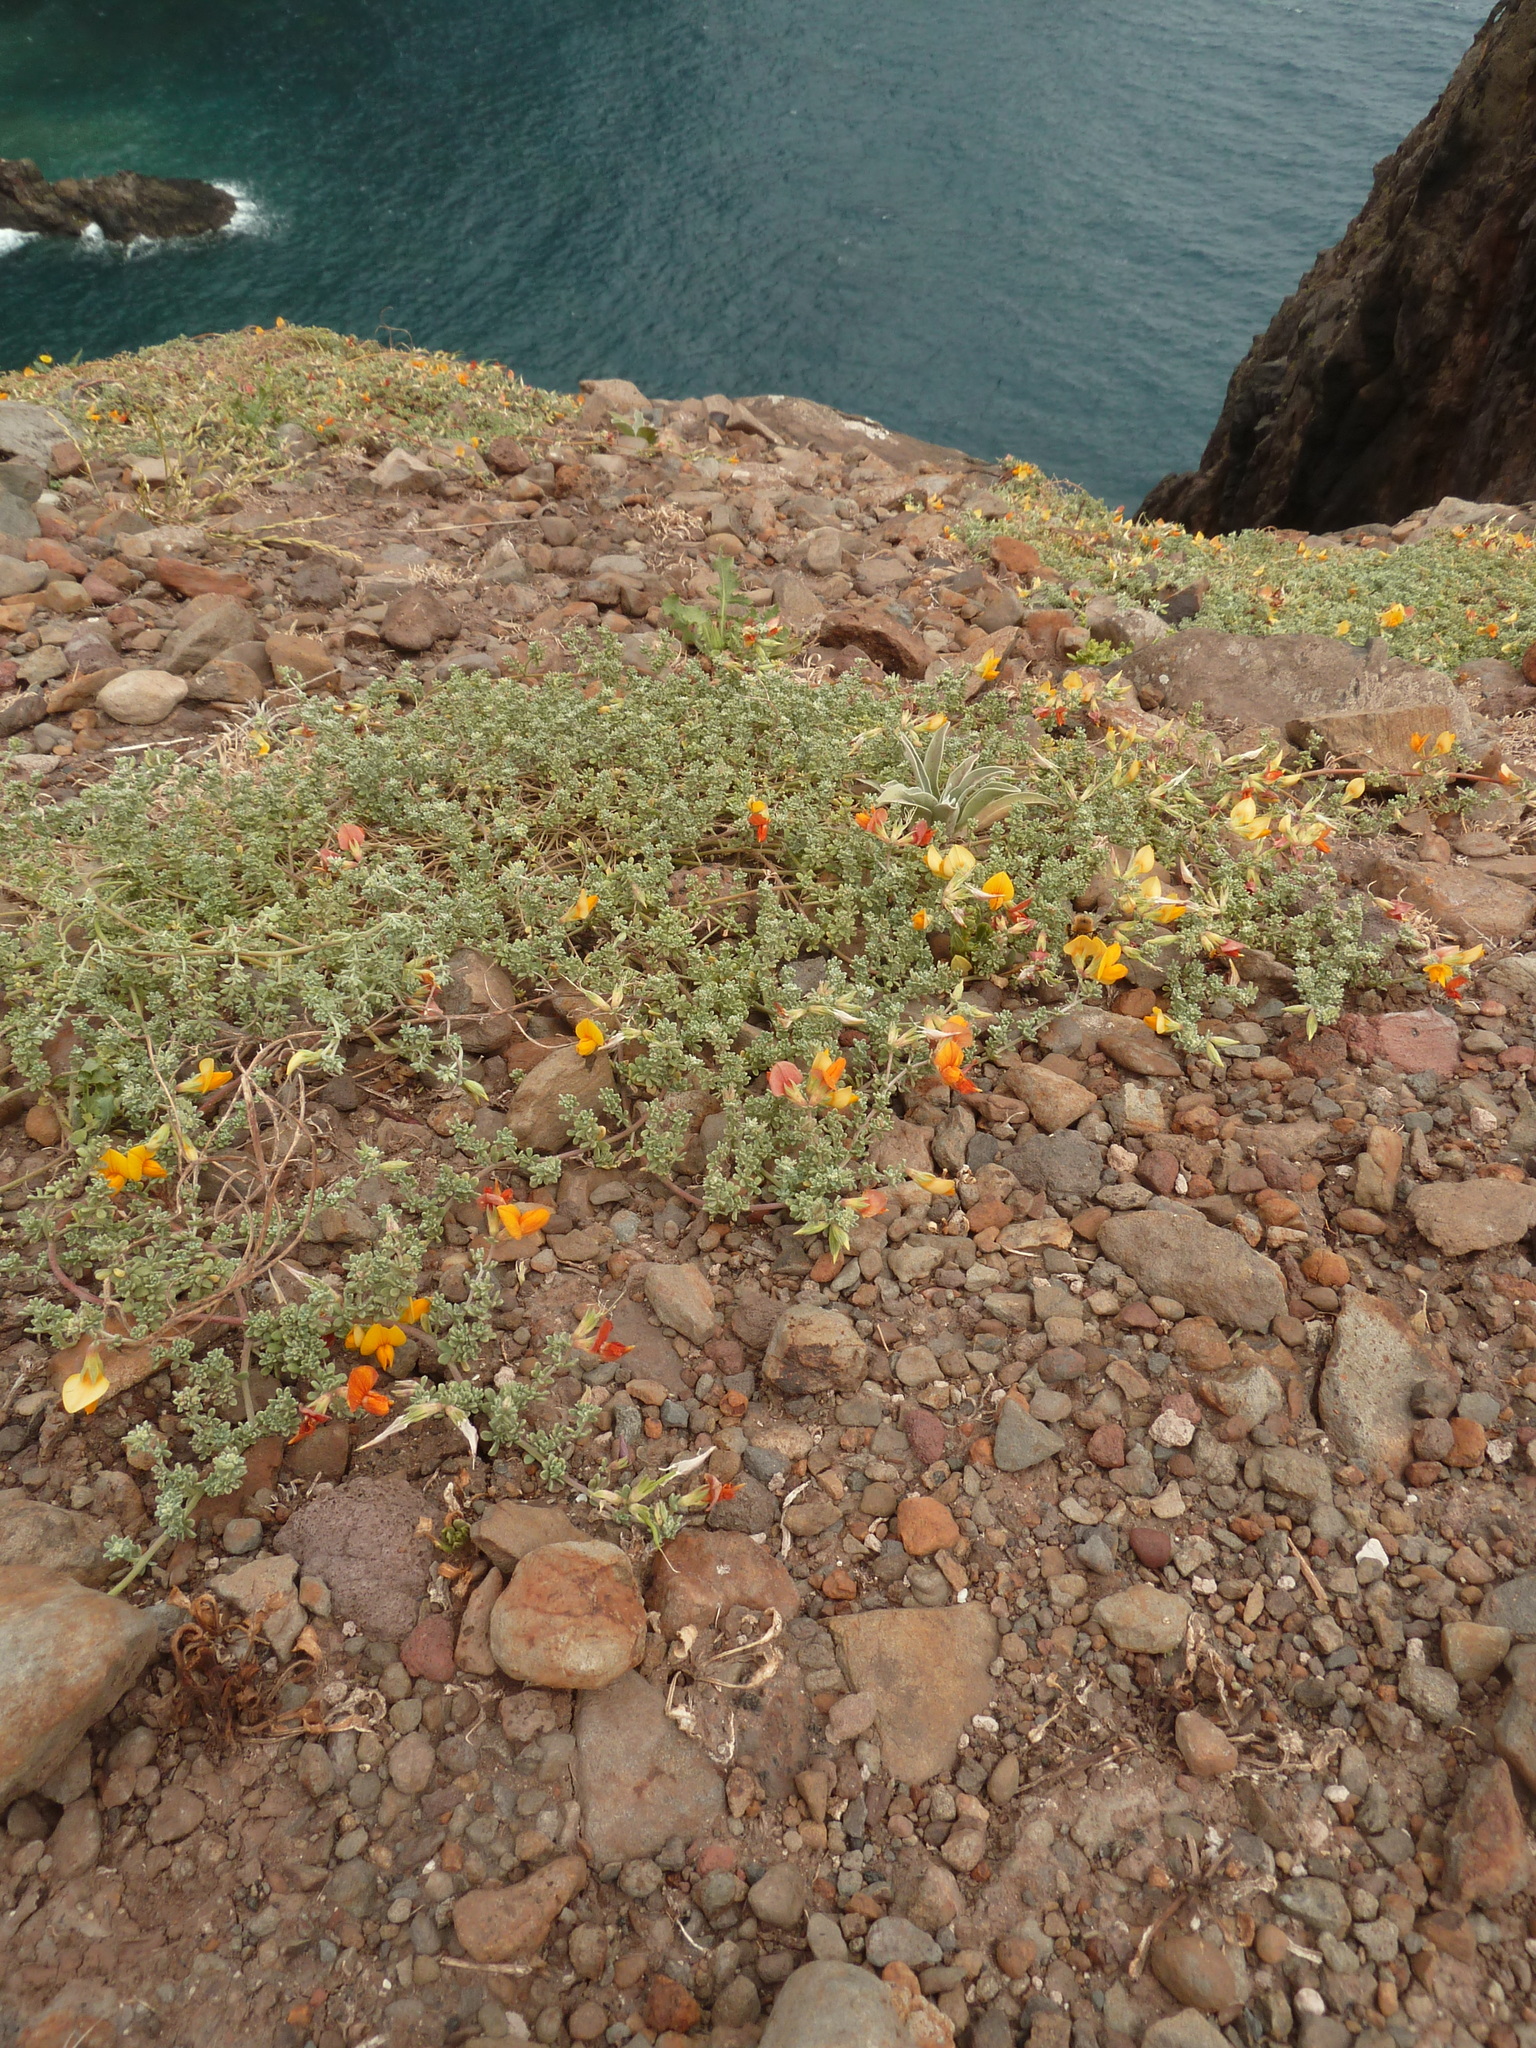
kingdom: Plantae
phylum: Tracheophyta
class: Magnoliopsida
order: Fabales
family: Fabaceae
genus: Lotus
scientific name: Lotus glaucus
